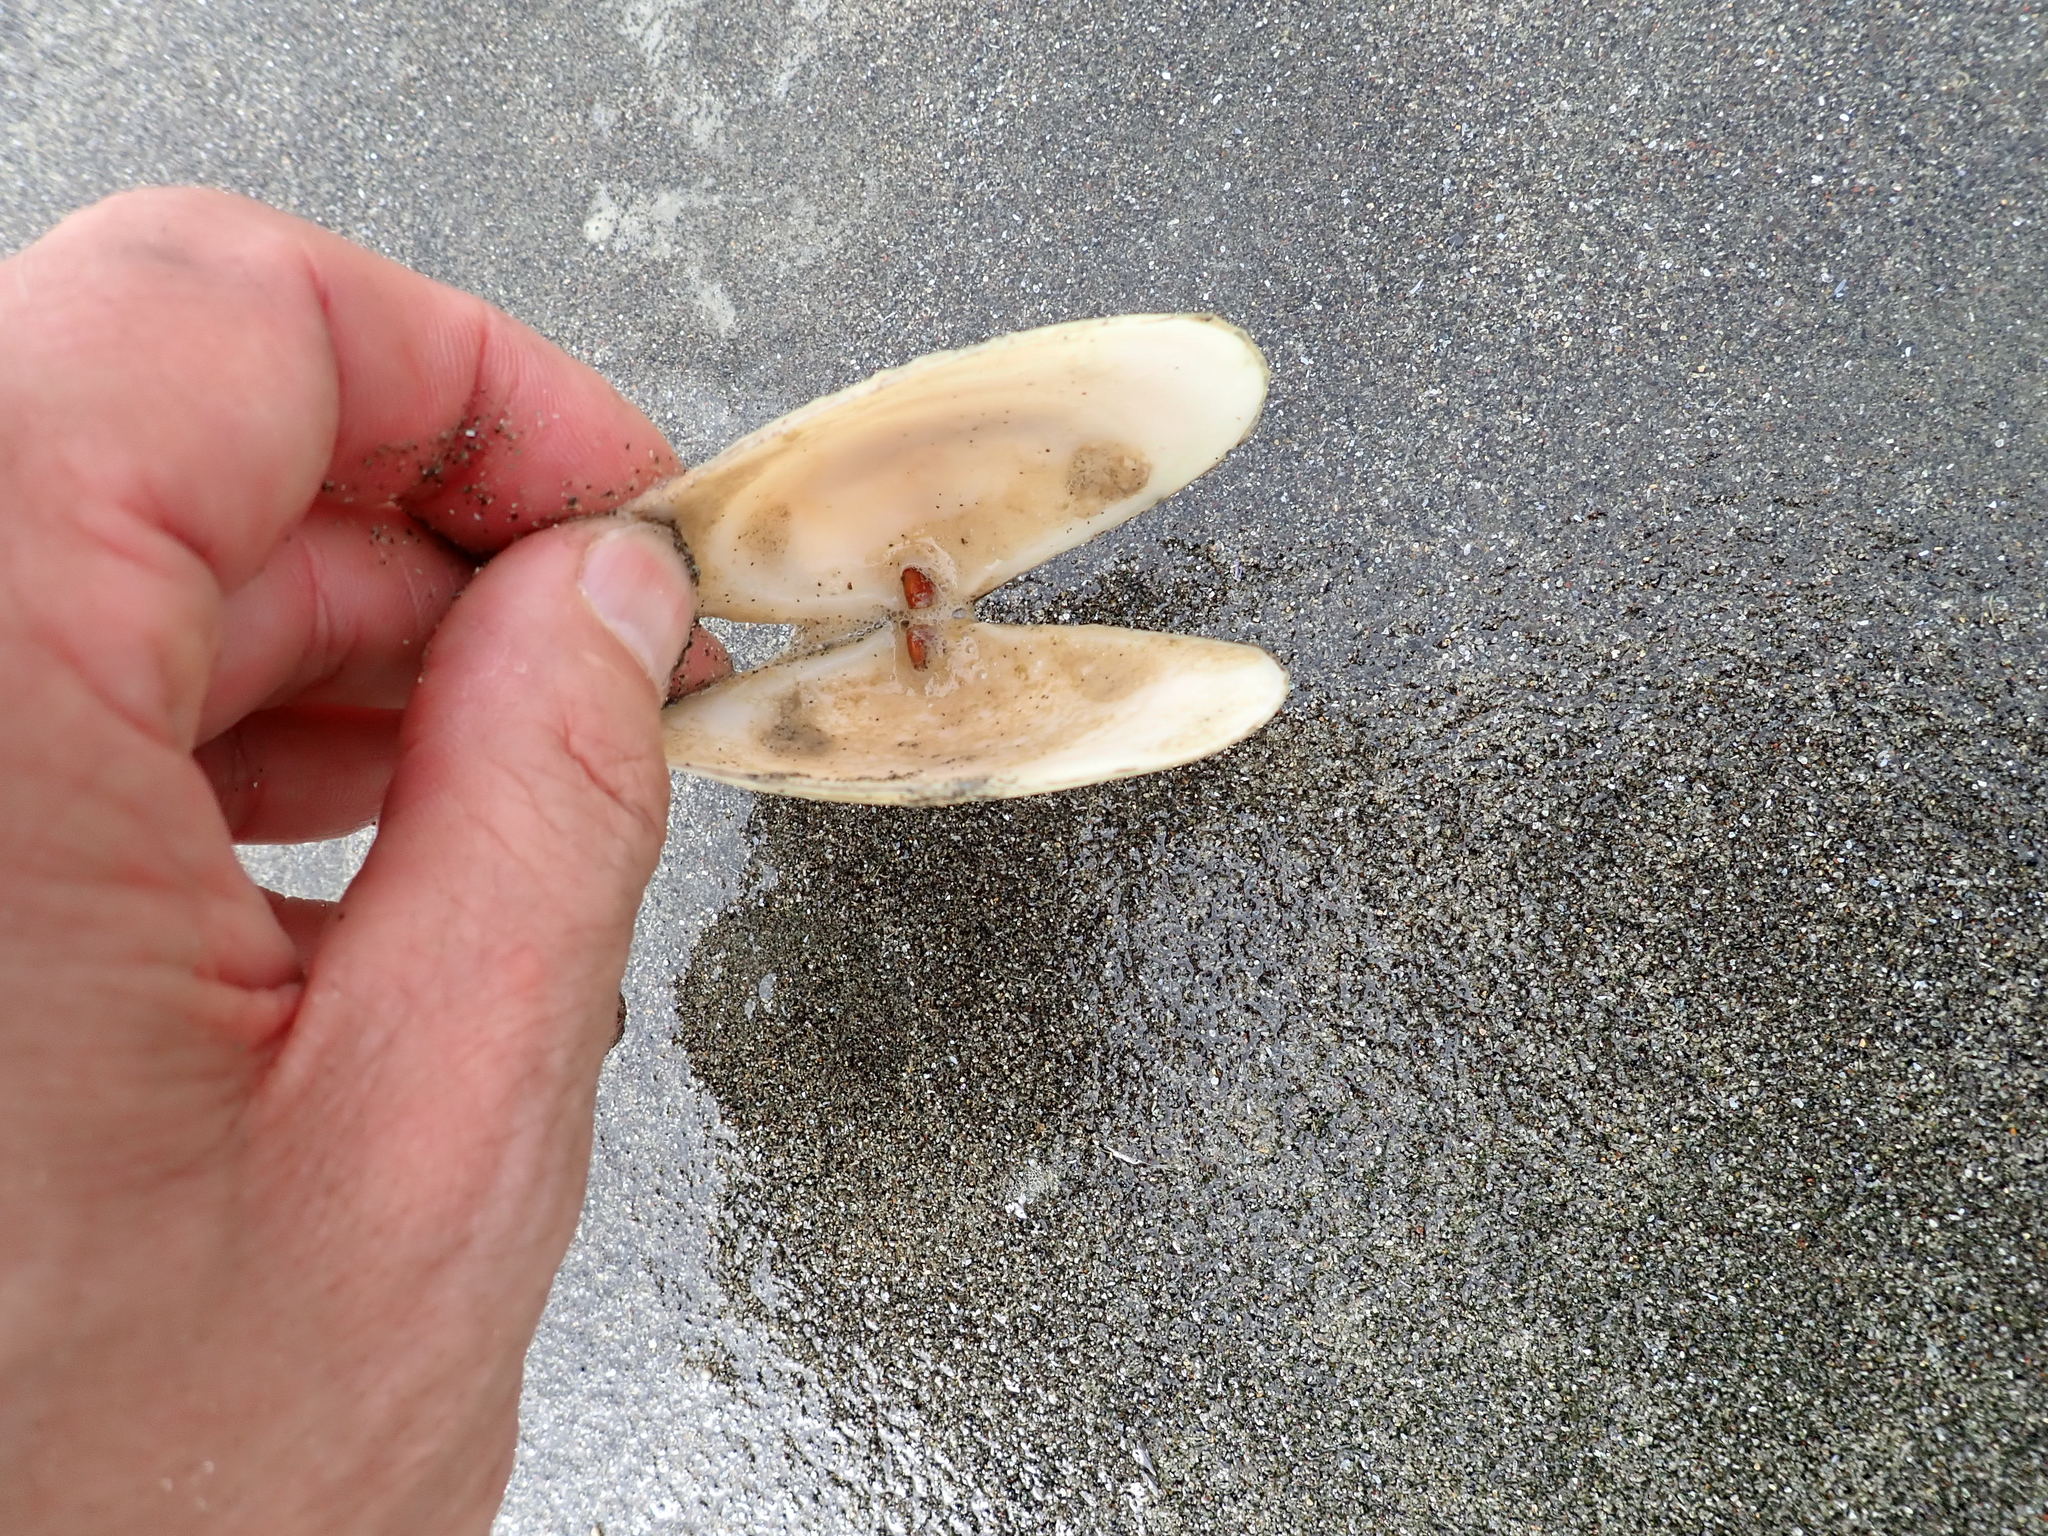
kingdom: Animalia
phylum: Mollusca
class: Bivalvia
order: Venerida
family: Mesodesmatidae
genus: Paphies
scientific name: Paphies donacina
